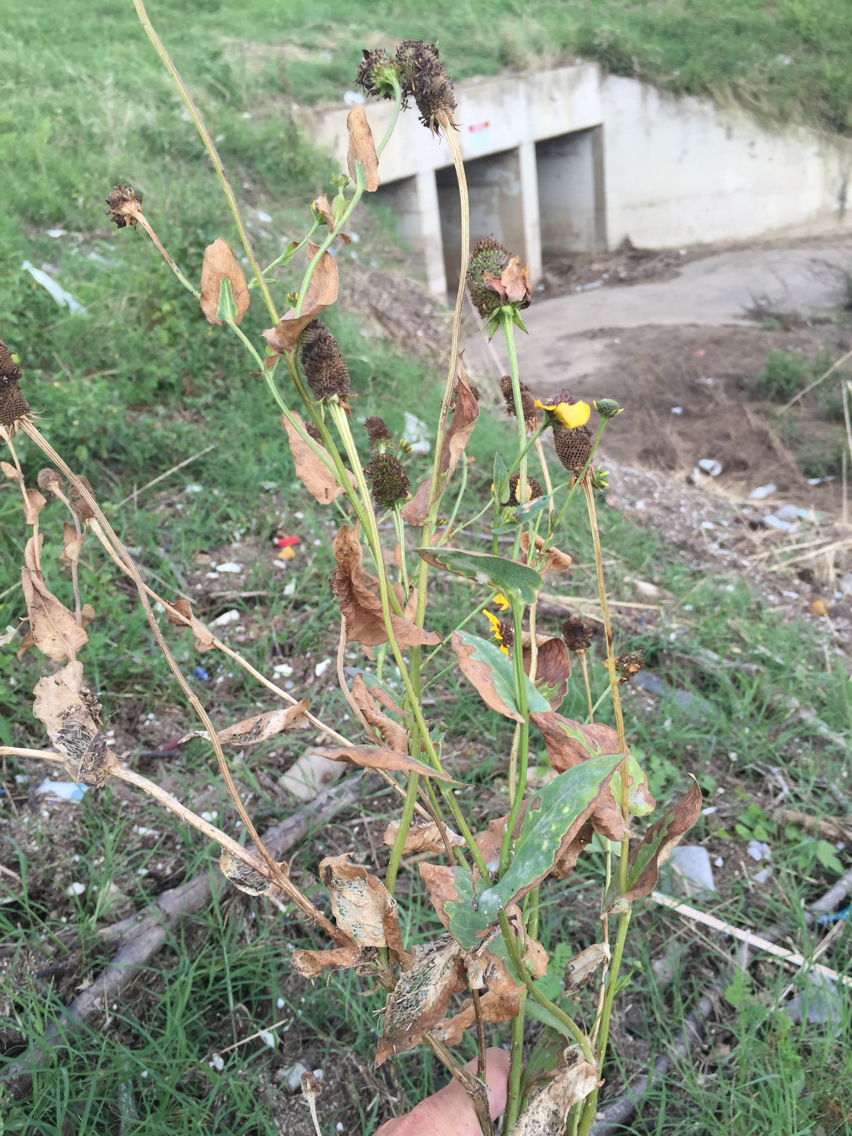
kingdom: Plantae
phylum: Tracheophyta
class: Magnoliopsida
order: Asterales
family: Asteraceae
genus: Rudbeckia
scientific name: Rudbeckia amplexicaulis
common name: Clasping-leaf coneflower
